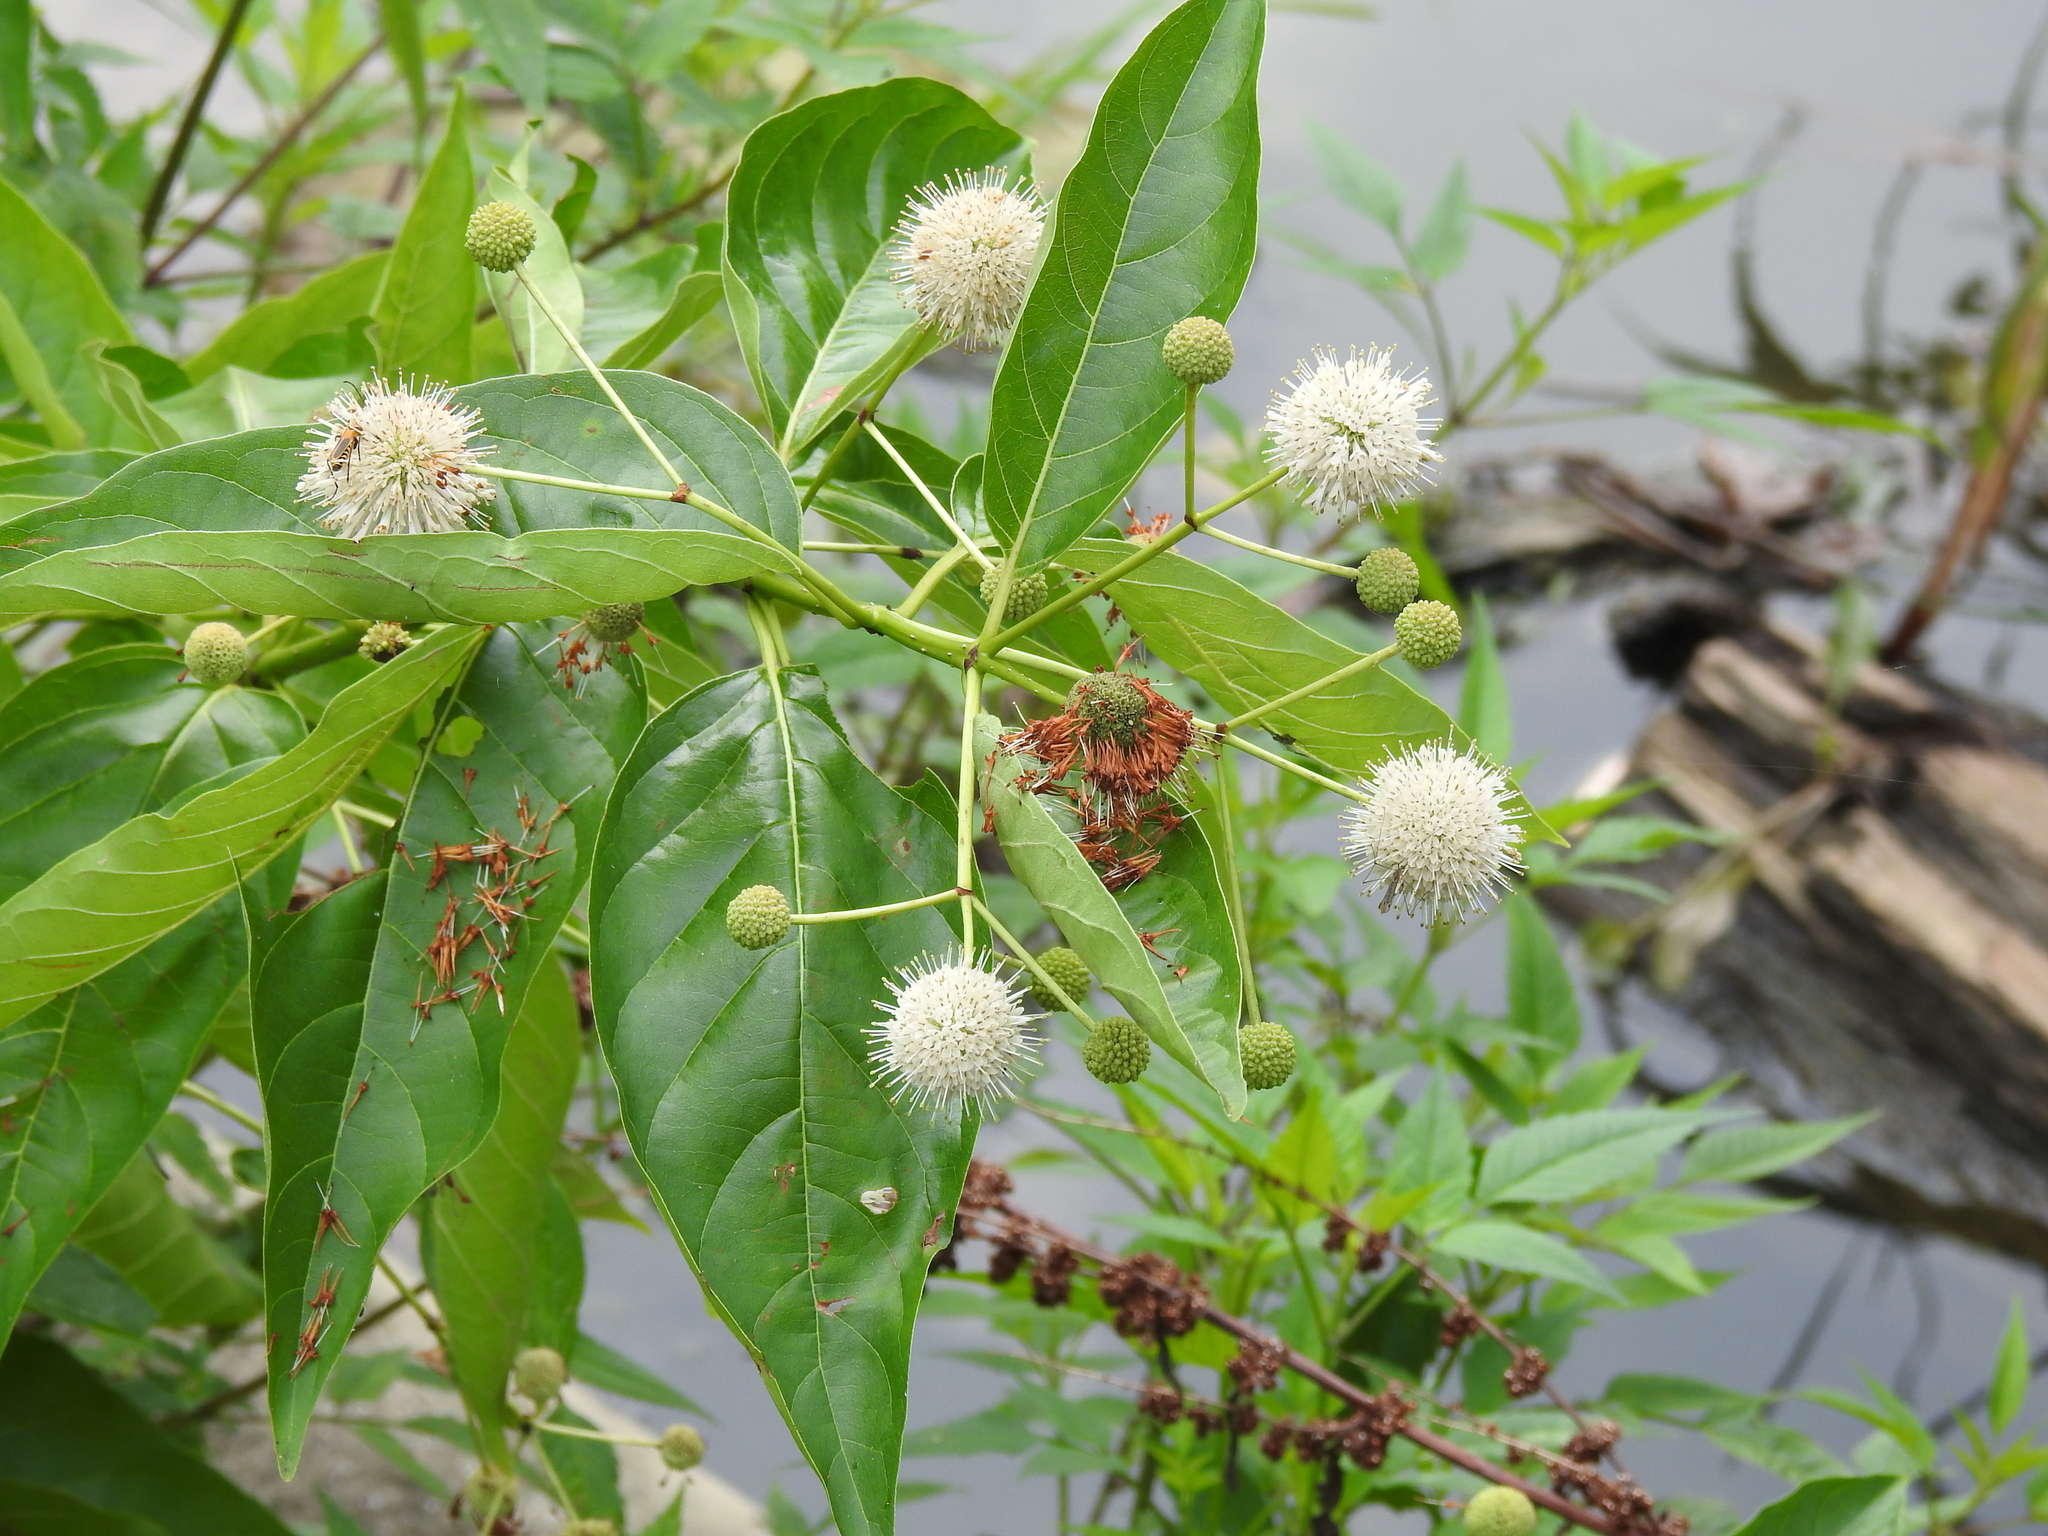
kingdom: Plantae
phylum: Tracheophyta
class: Magnoliopsida
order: Gentianales
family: Rubiaceae
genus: Cephalanthus
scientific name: Cephalanthus occidentalis
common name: Button-willow
